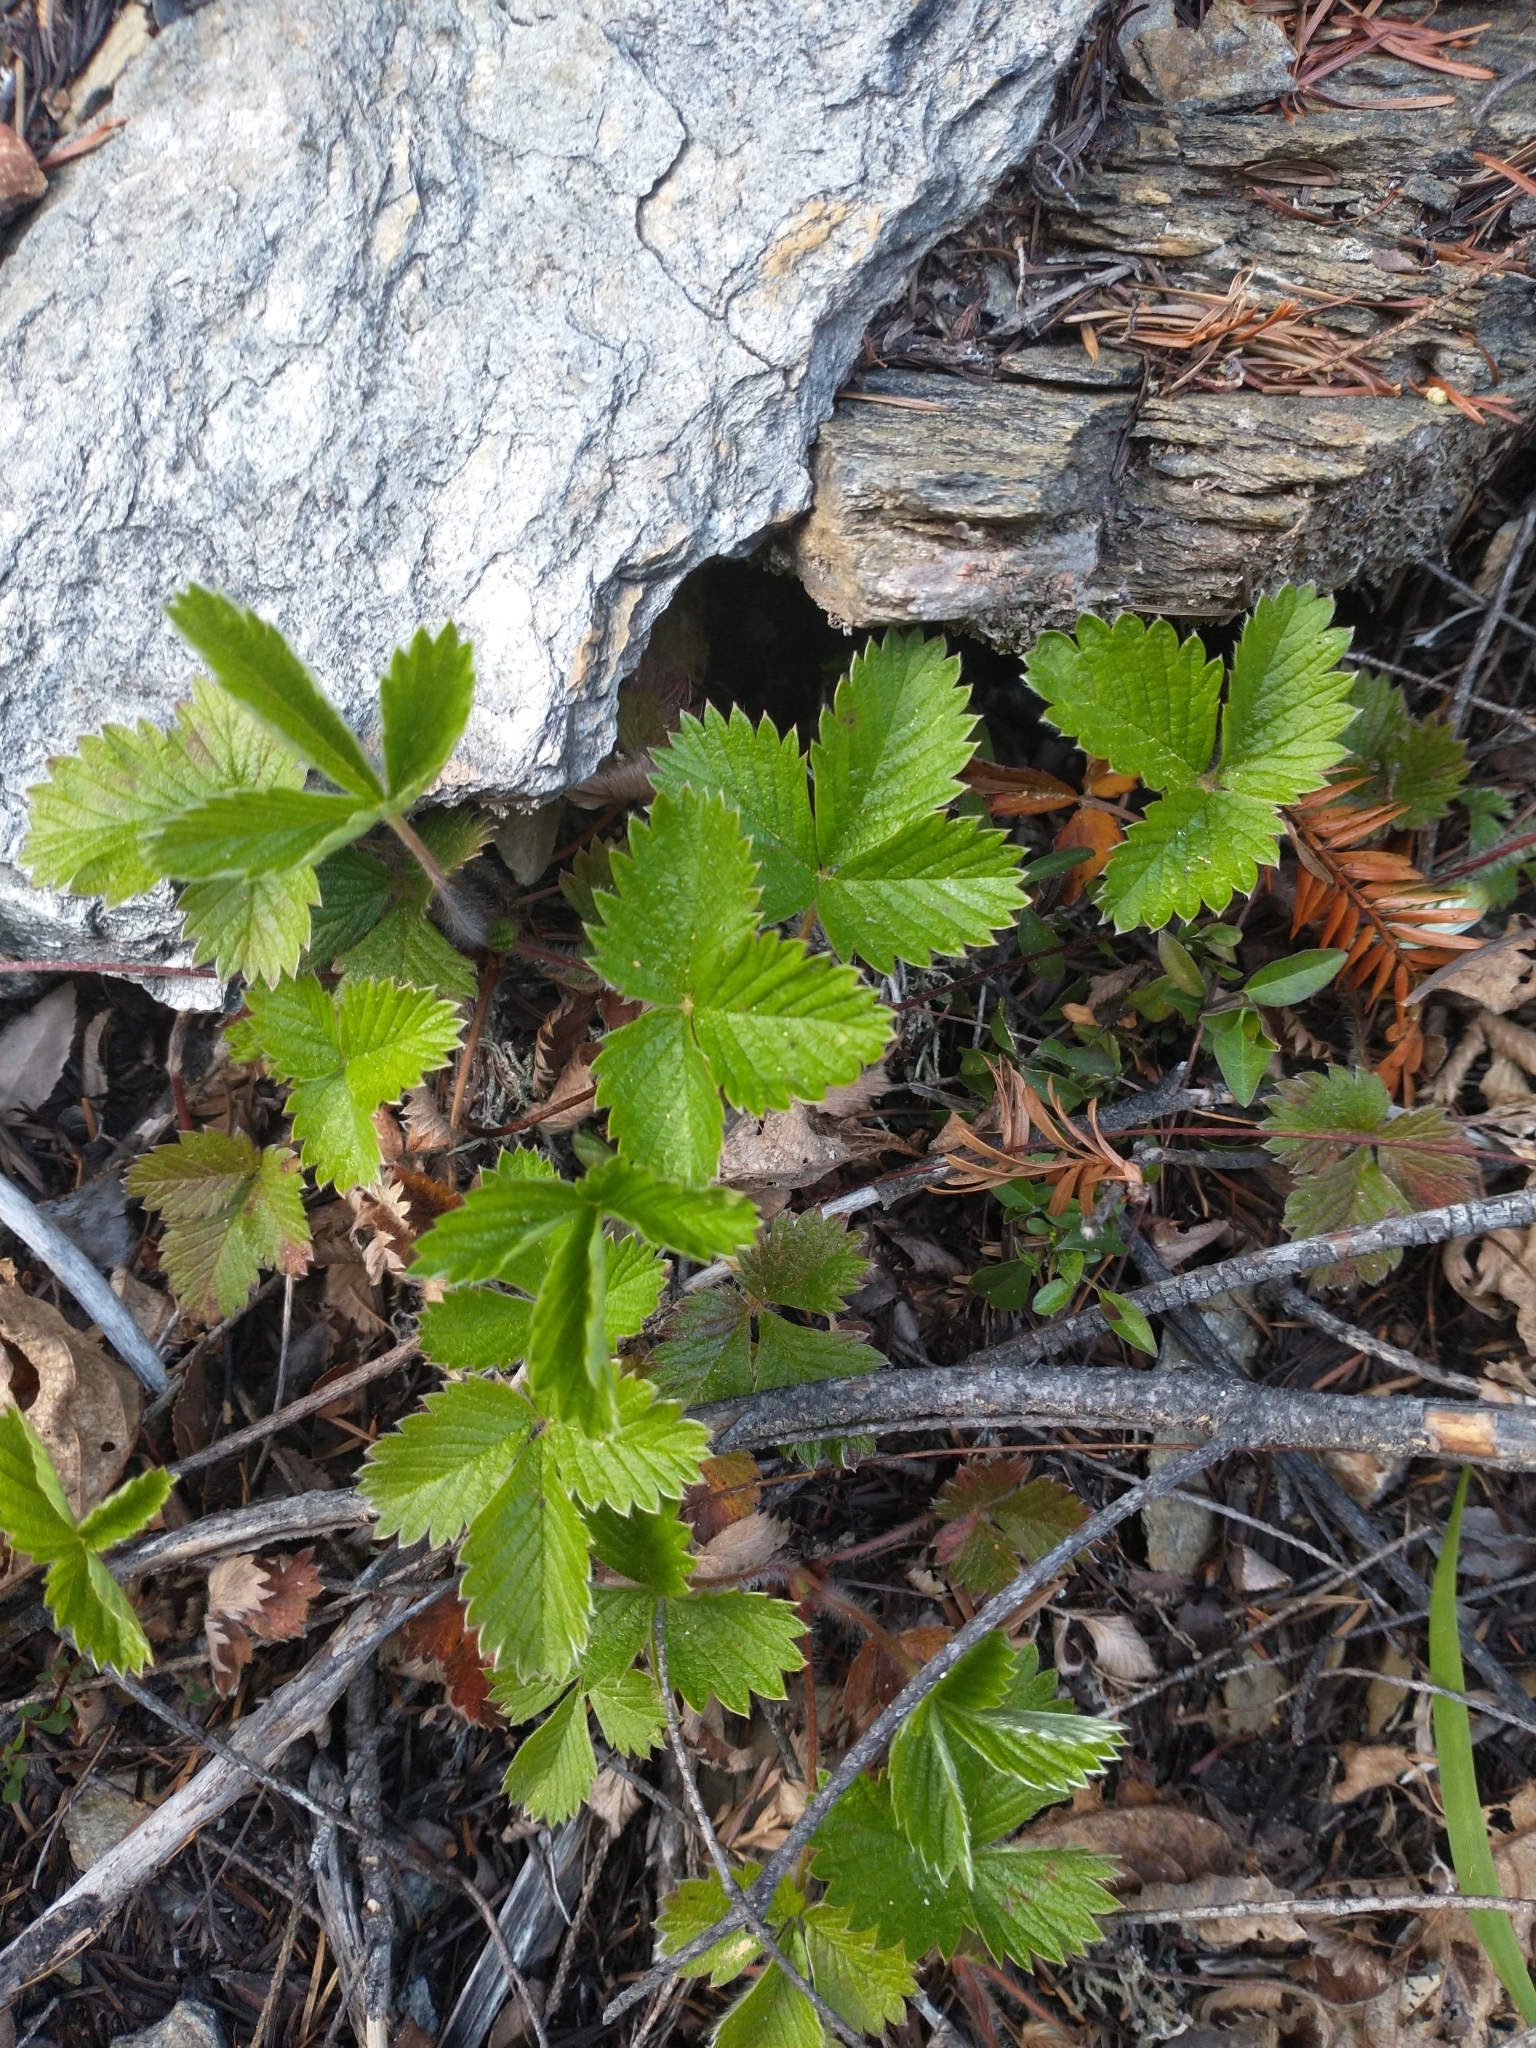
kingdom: Plantae
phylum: Tracheophyta
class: Magnoliopsida
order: Rosales
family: Rosaceae
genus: Fragaria
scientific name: Fragaria vesca
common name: Wild strawberry
